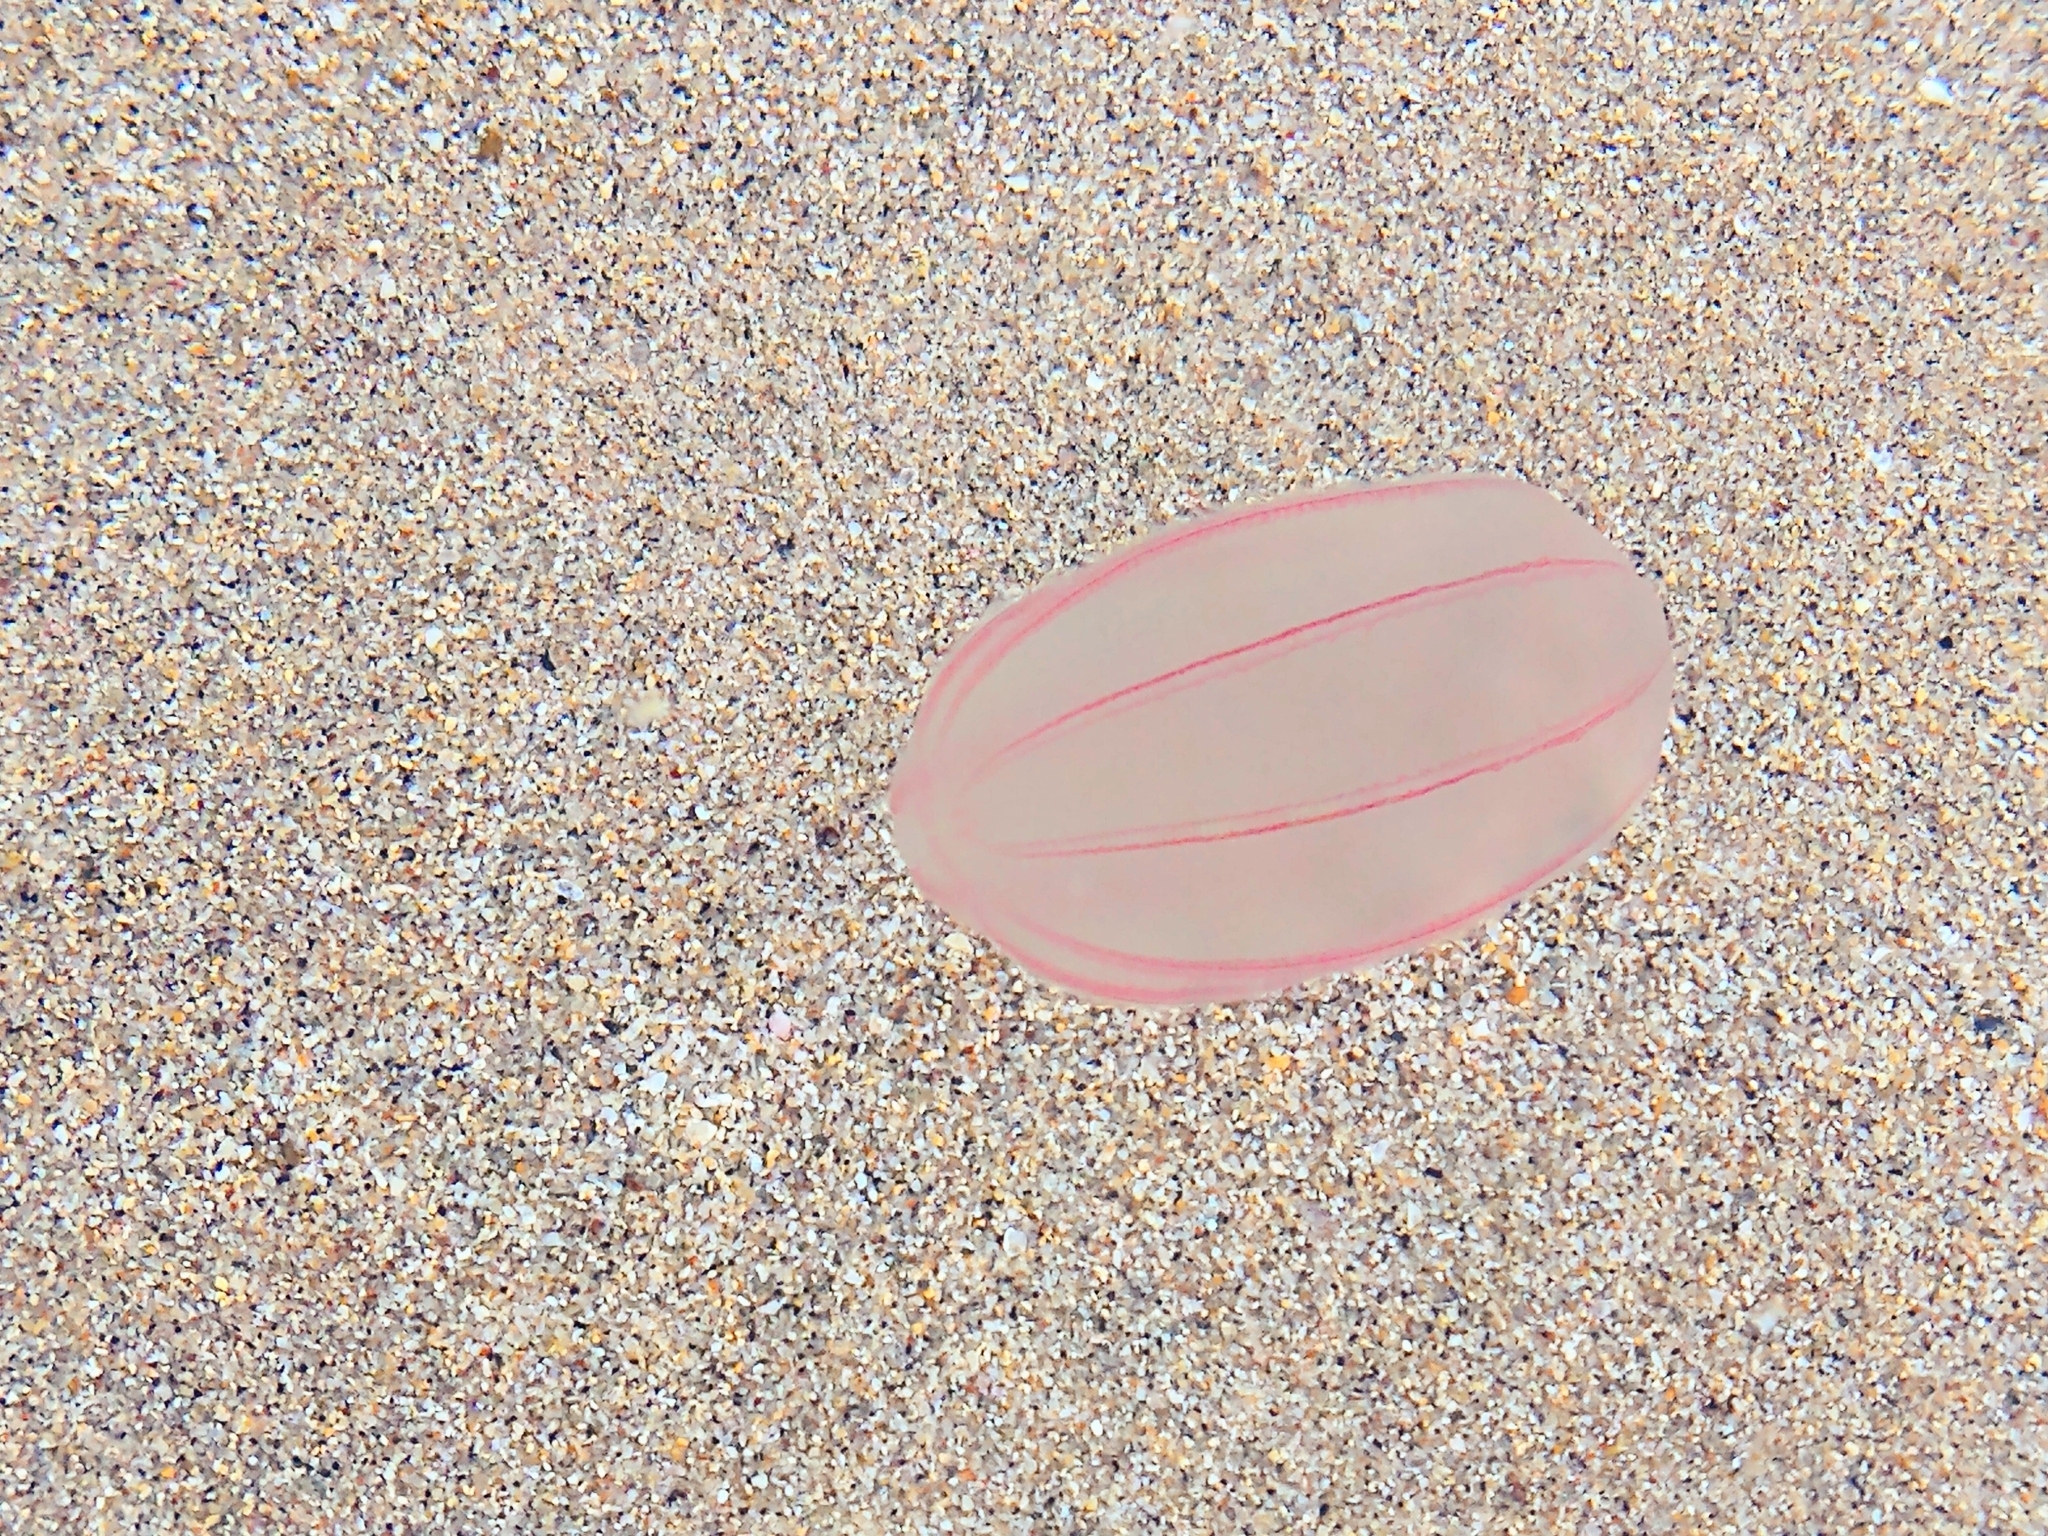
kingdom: Animalia
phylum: Ctenophora
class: Nuda
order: Beroida
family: Beroidae
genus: Beroe
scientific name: Beroe cucumis
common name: Beroe
